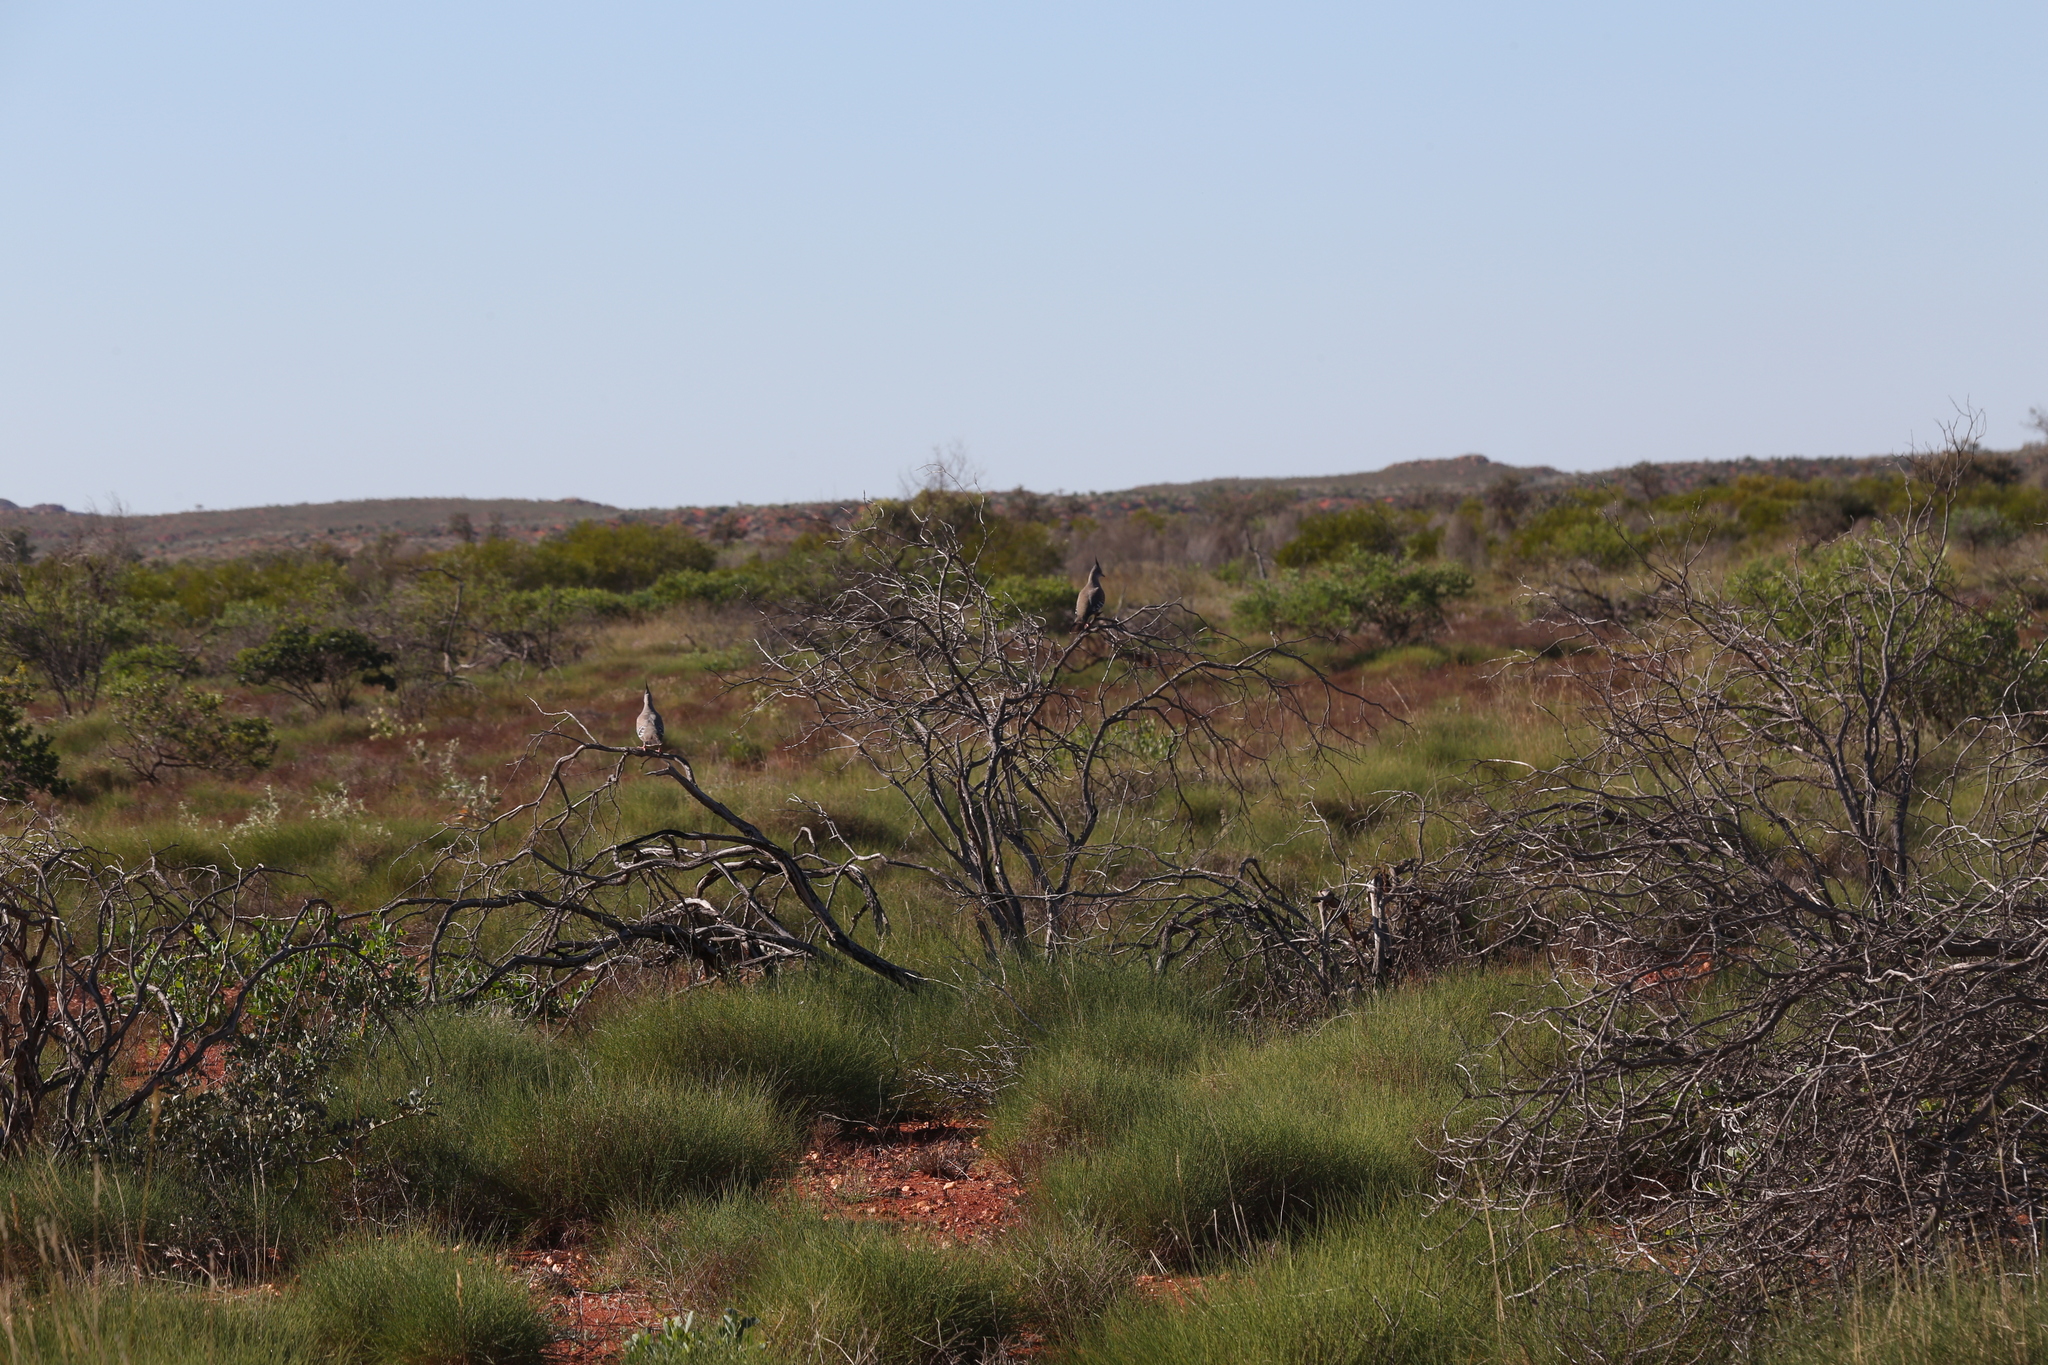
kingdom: Animalia
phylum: Chordata
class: Aves
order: Columbiformes
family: Columbidae
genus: Ocyphaps
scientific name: Ocyphaps lophotes
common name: Crested pigeon
